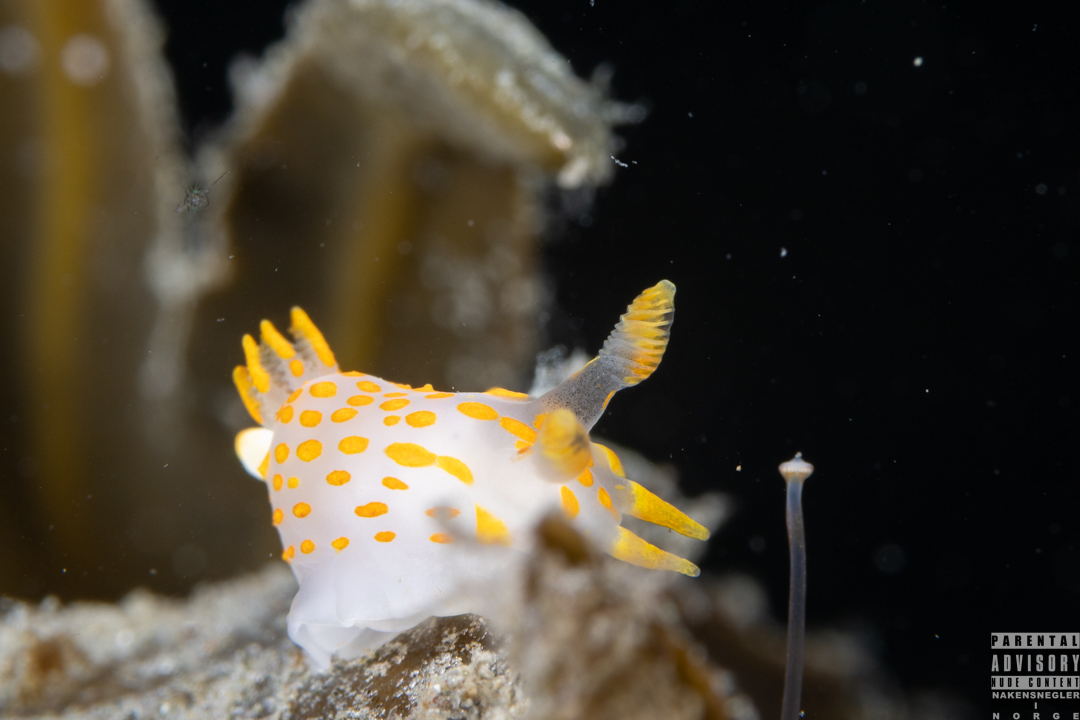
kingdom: Animalia
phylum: Mollusca
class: Gastropoda
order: Nudibranchia
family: Polyceridae
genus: Polycera
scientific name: Polycera quadrilineata
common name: Four-striped polycera
